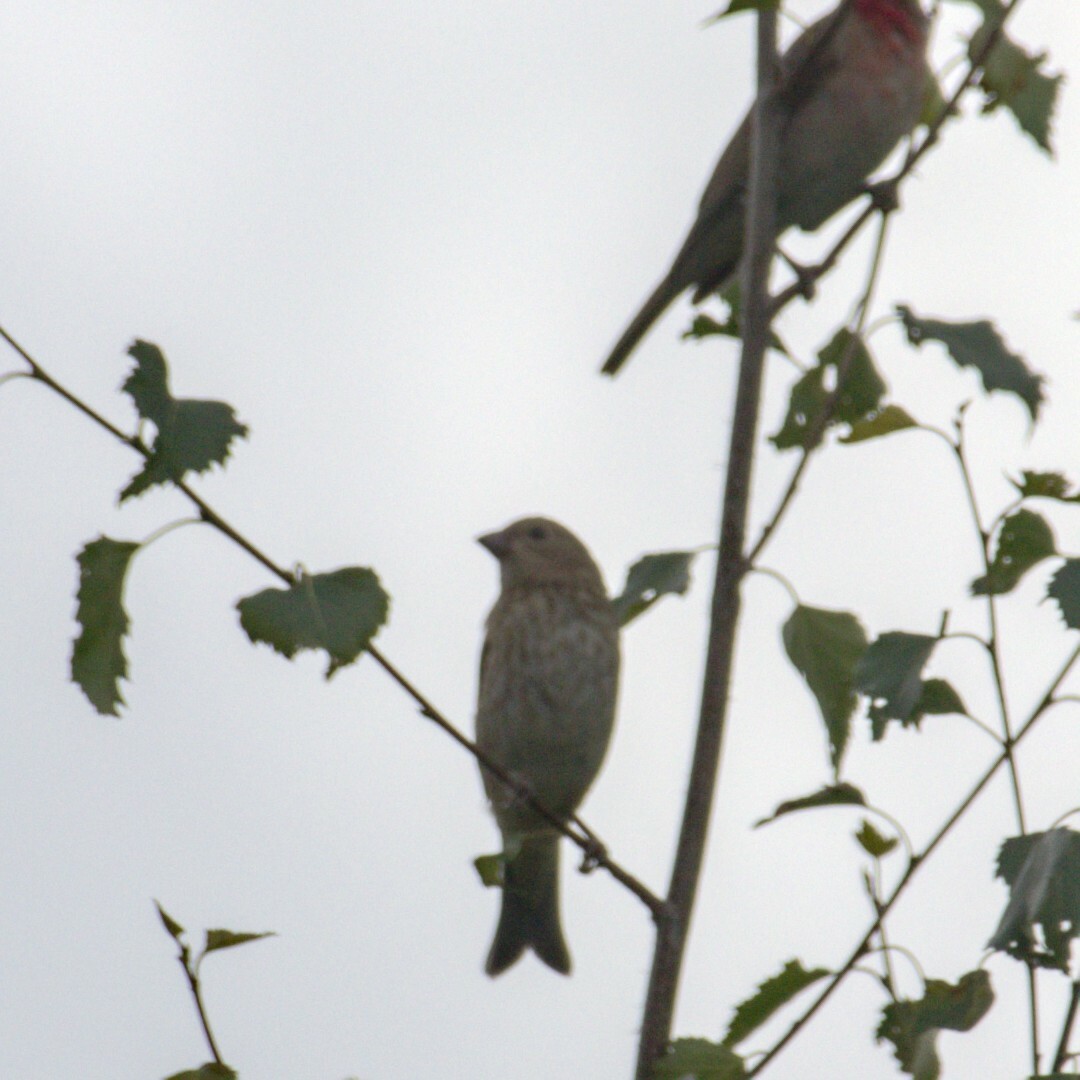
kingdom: Animalia
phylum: Chordata
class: Aves
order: Passeriformes
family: Fringillidae
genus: Carpodacus
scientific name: Carpodacus erythrinus
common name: Common rosefinch
